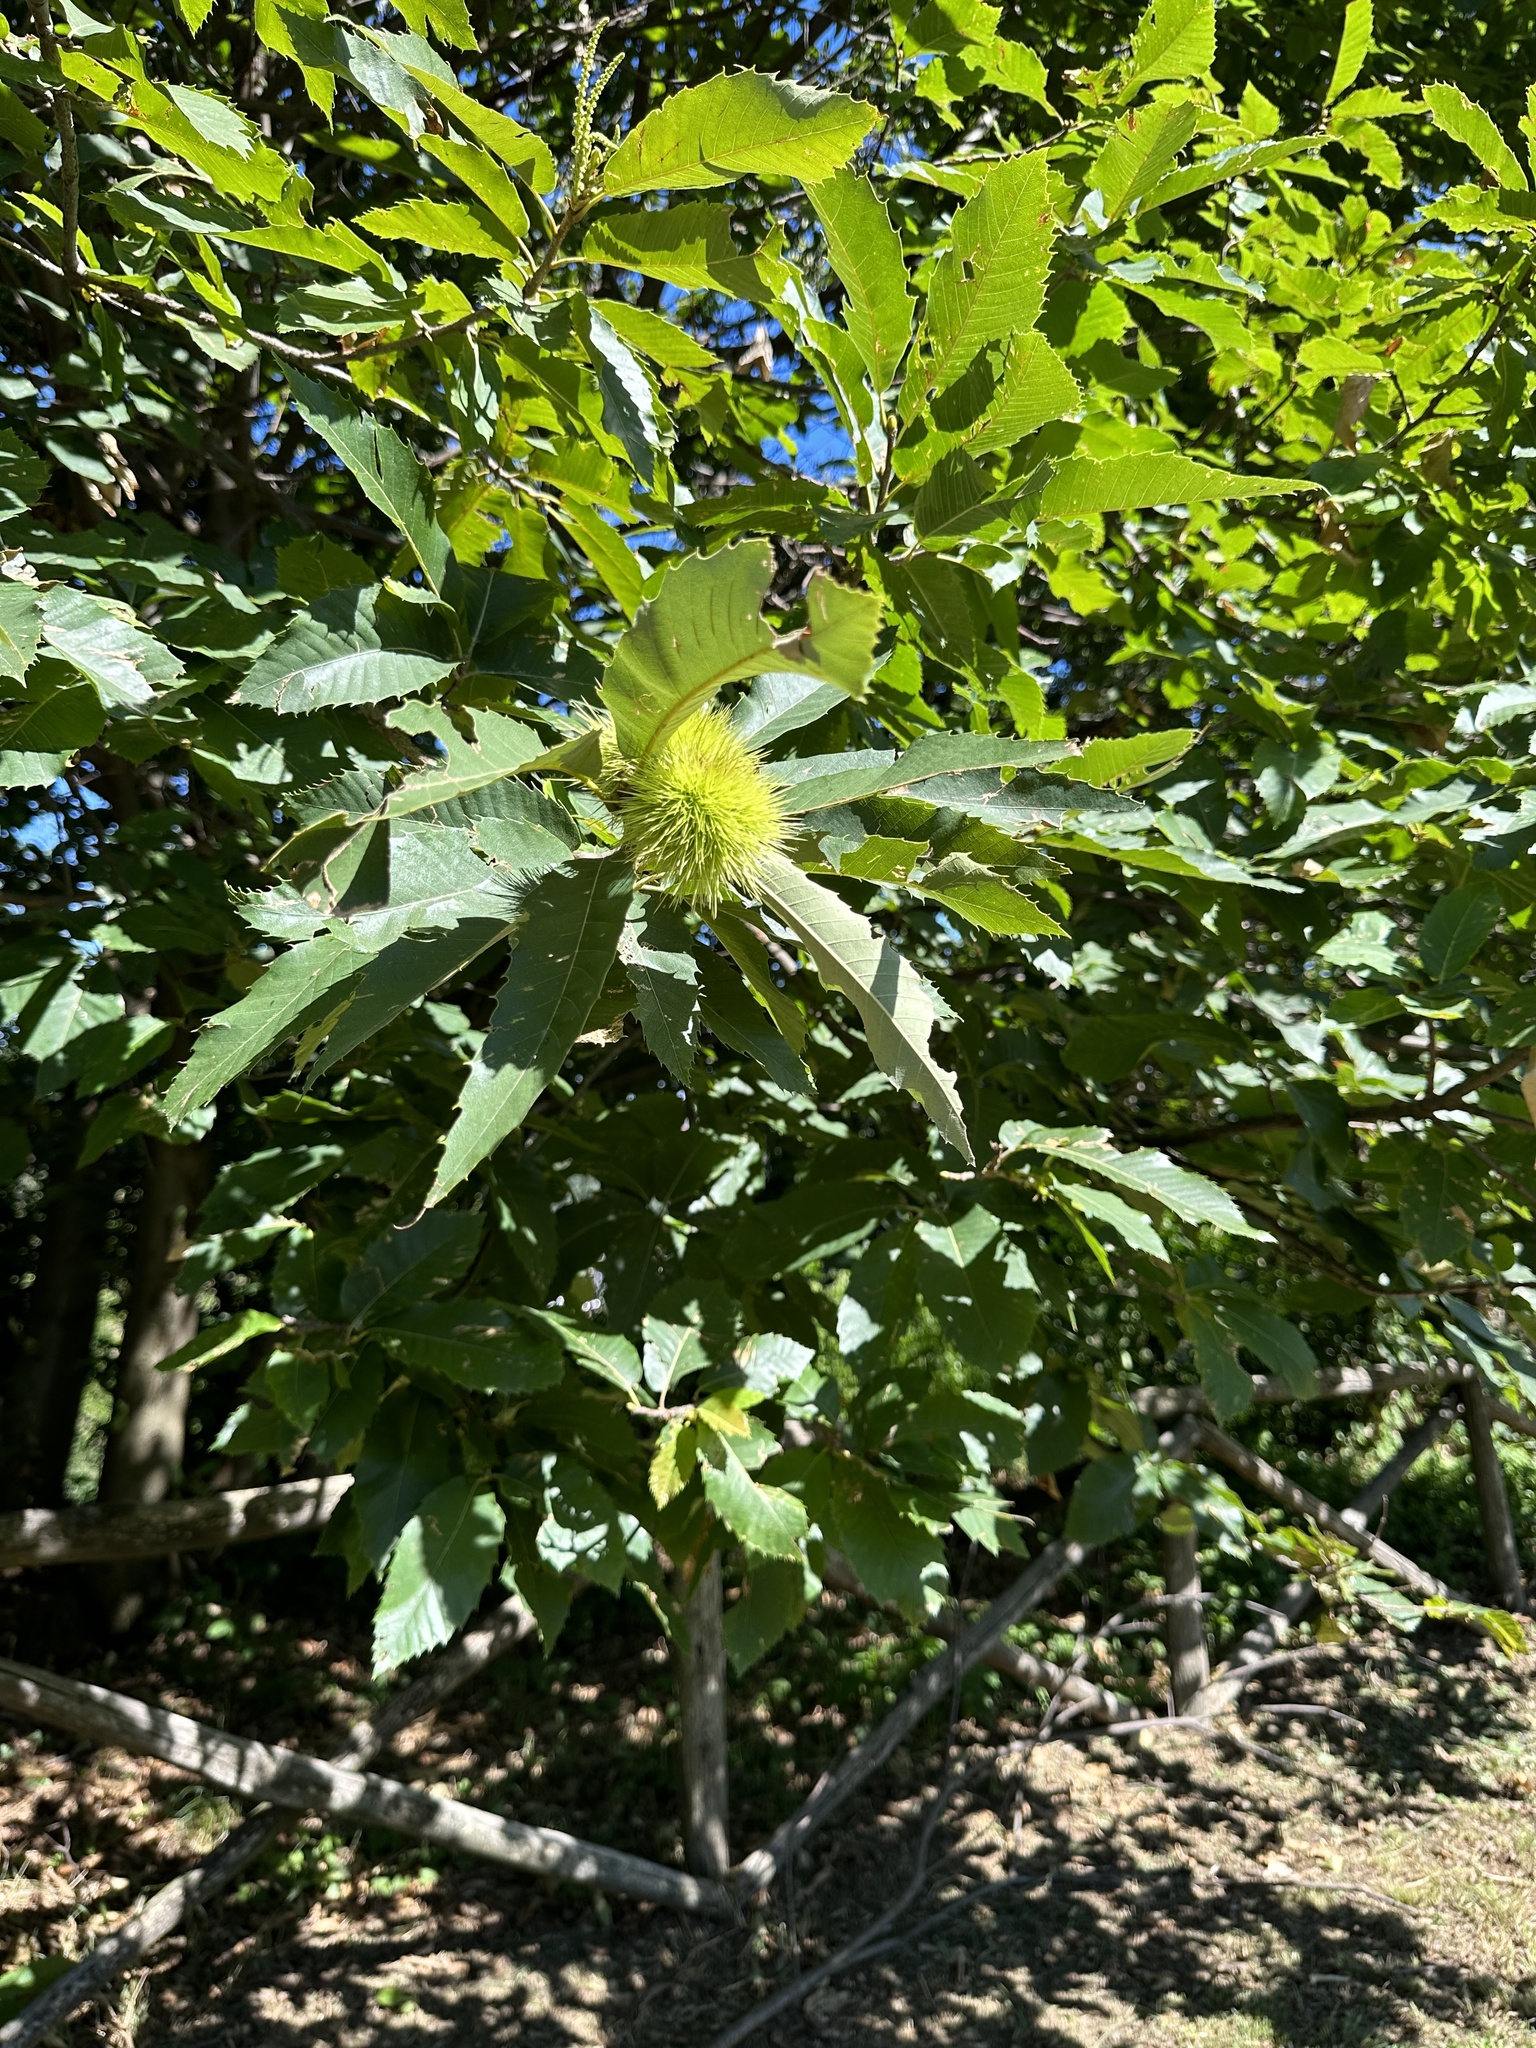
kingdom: Plantae
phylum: Tracheophyta
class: Magnoliopsida
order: Fagales
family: Fagaceae
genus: Castanea
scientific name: Castanea sativa
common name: Sweet chestnut
